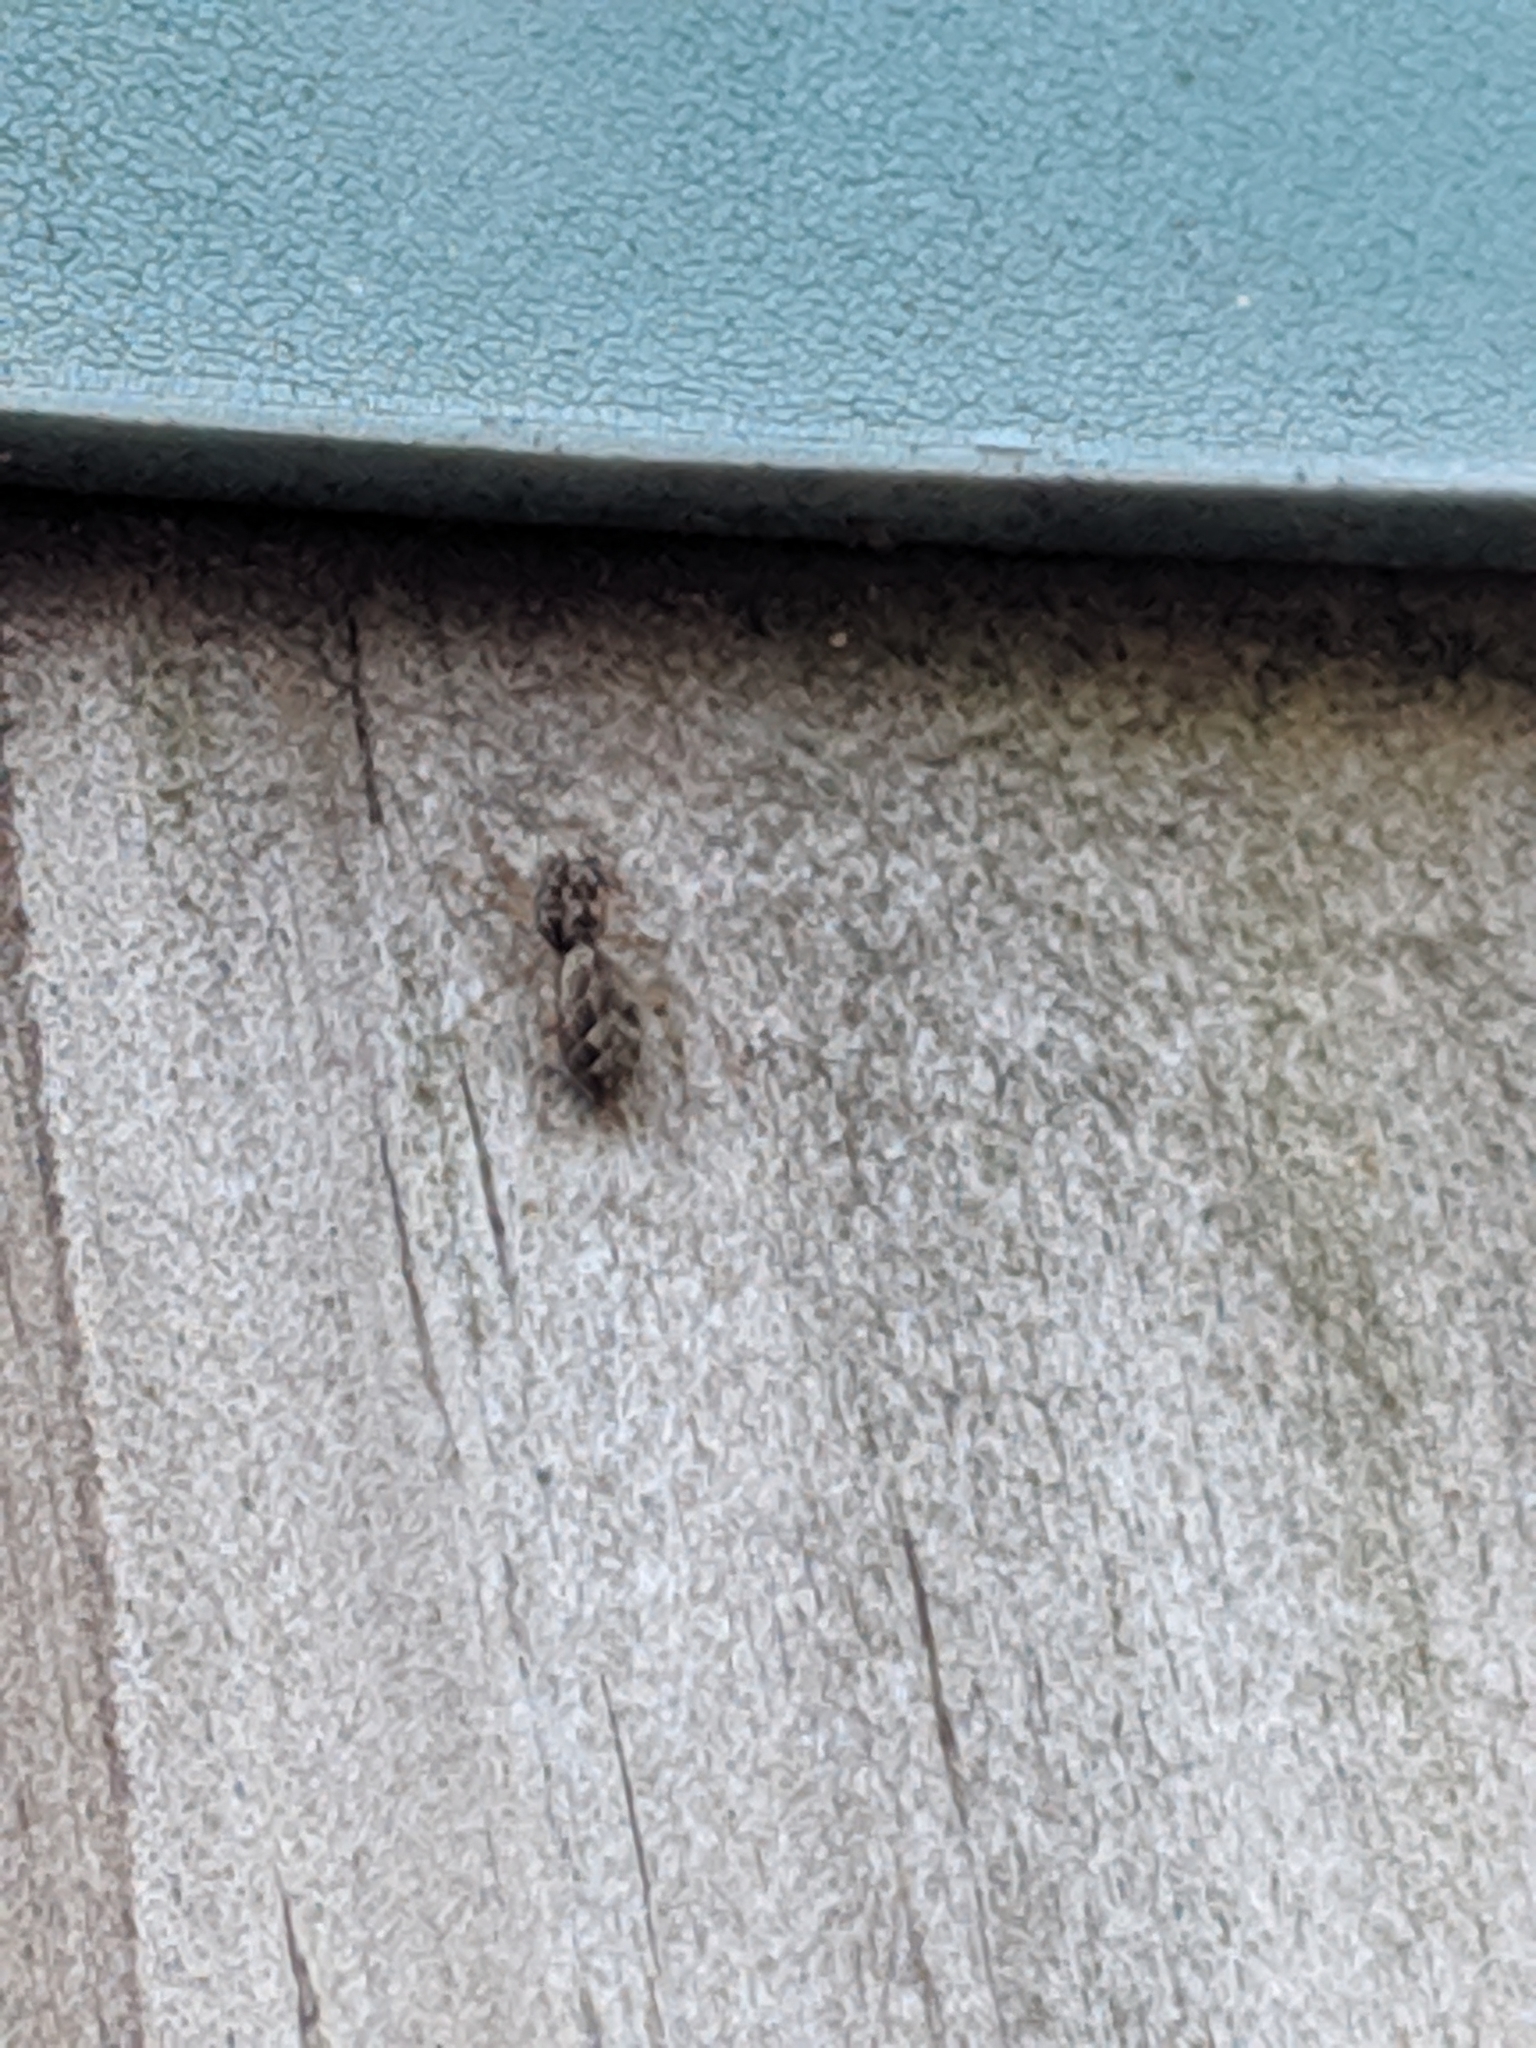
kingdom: Animalia
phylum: Arthropoda
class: Arachnida
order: Araneae
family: Salticidae
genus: Platycryptus
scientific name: Platycryptus undatus
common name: Tan jumping spider
